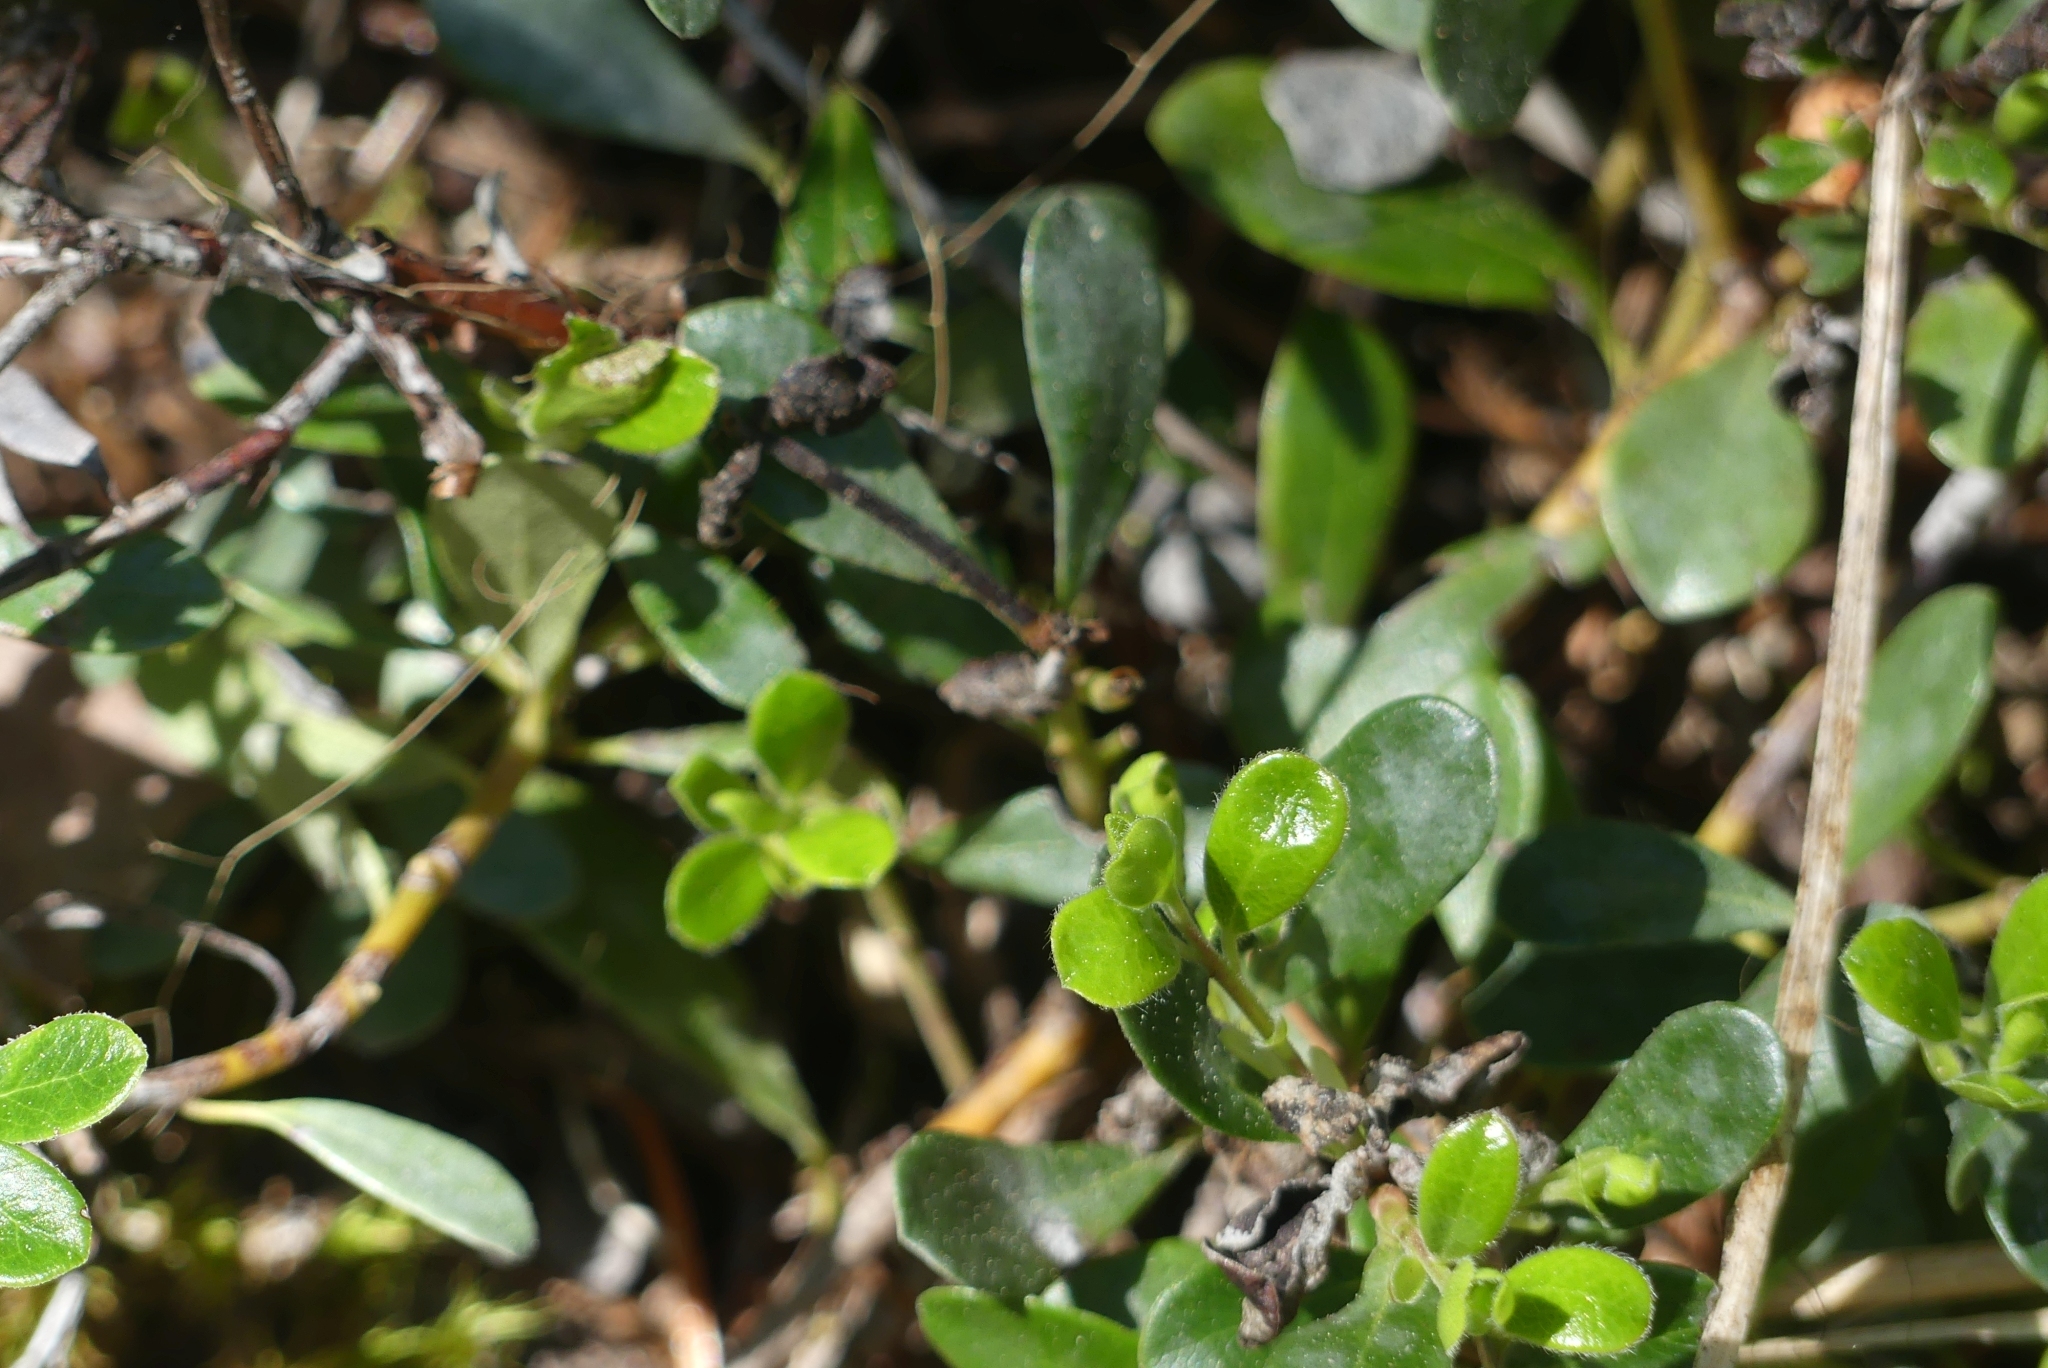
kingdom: Plantae
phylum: Tracheophyta
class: Magnoliopsida
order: Ericales
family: Ericaceae
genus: Arctostaphylos
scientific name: Arctostaphylos uva-ursi
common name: Bearberry
